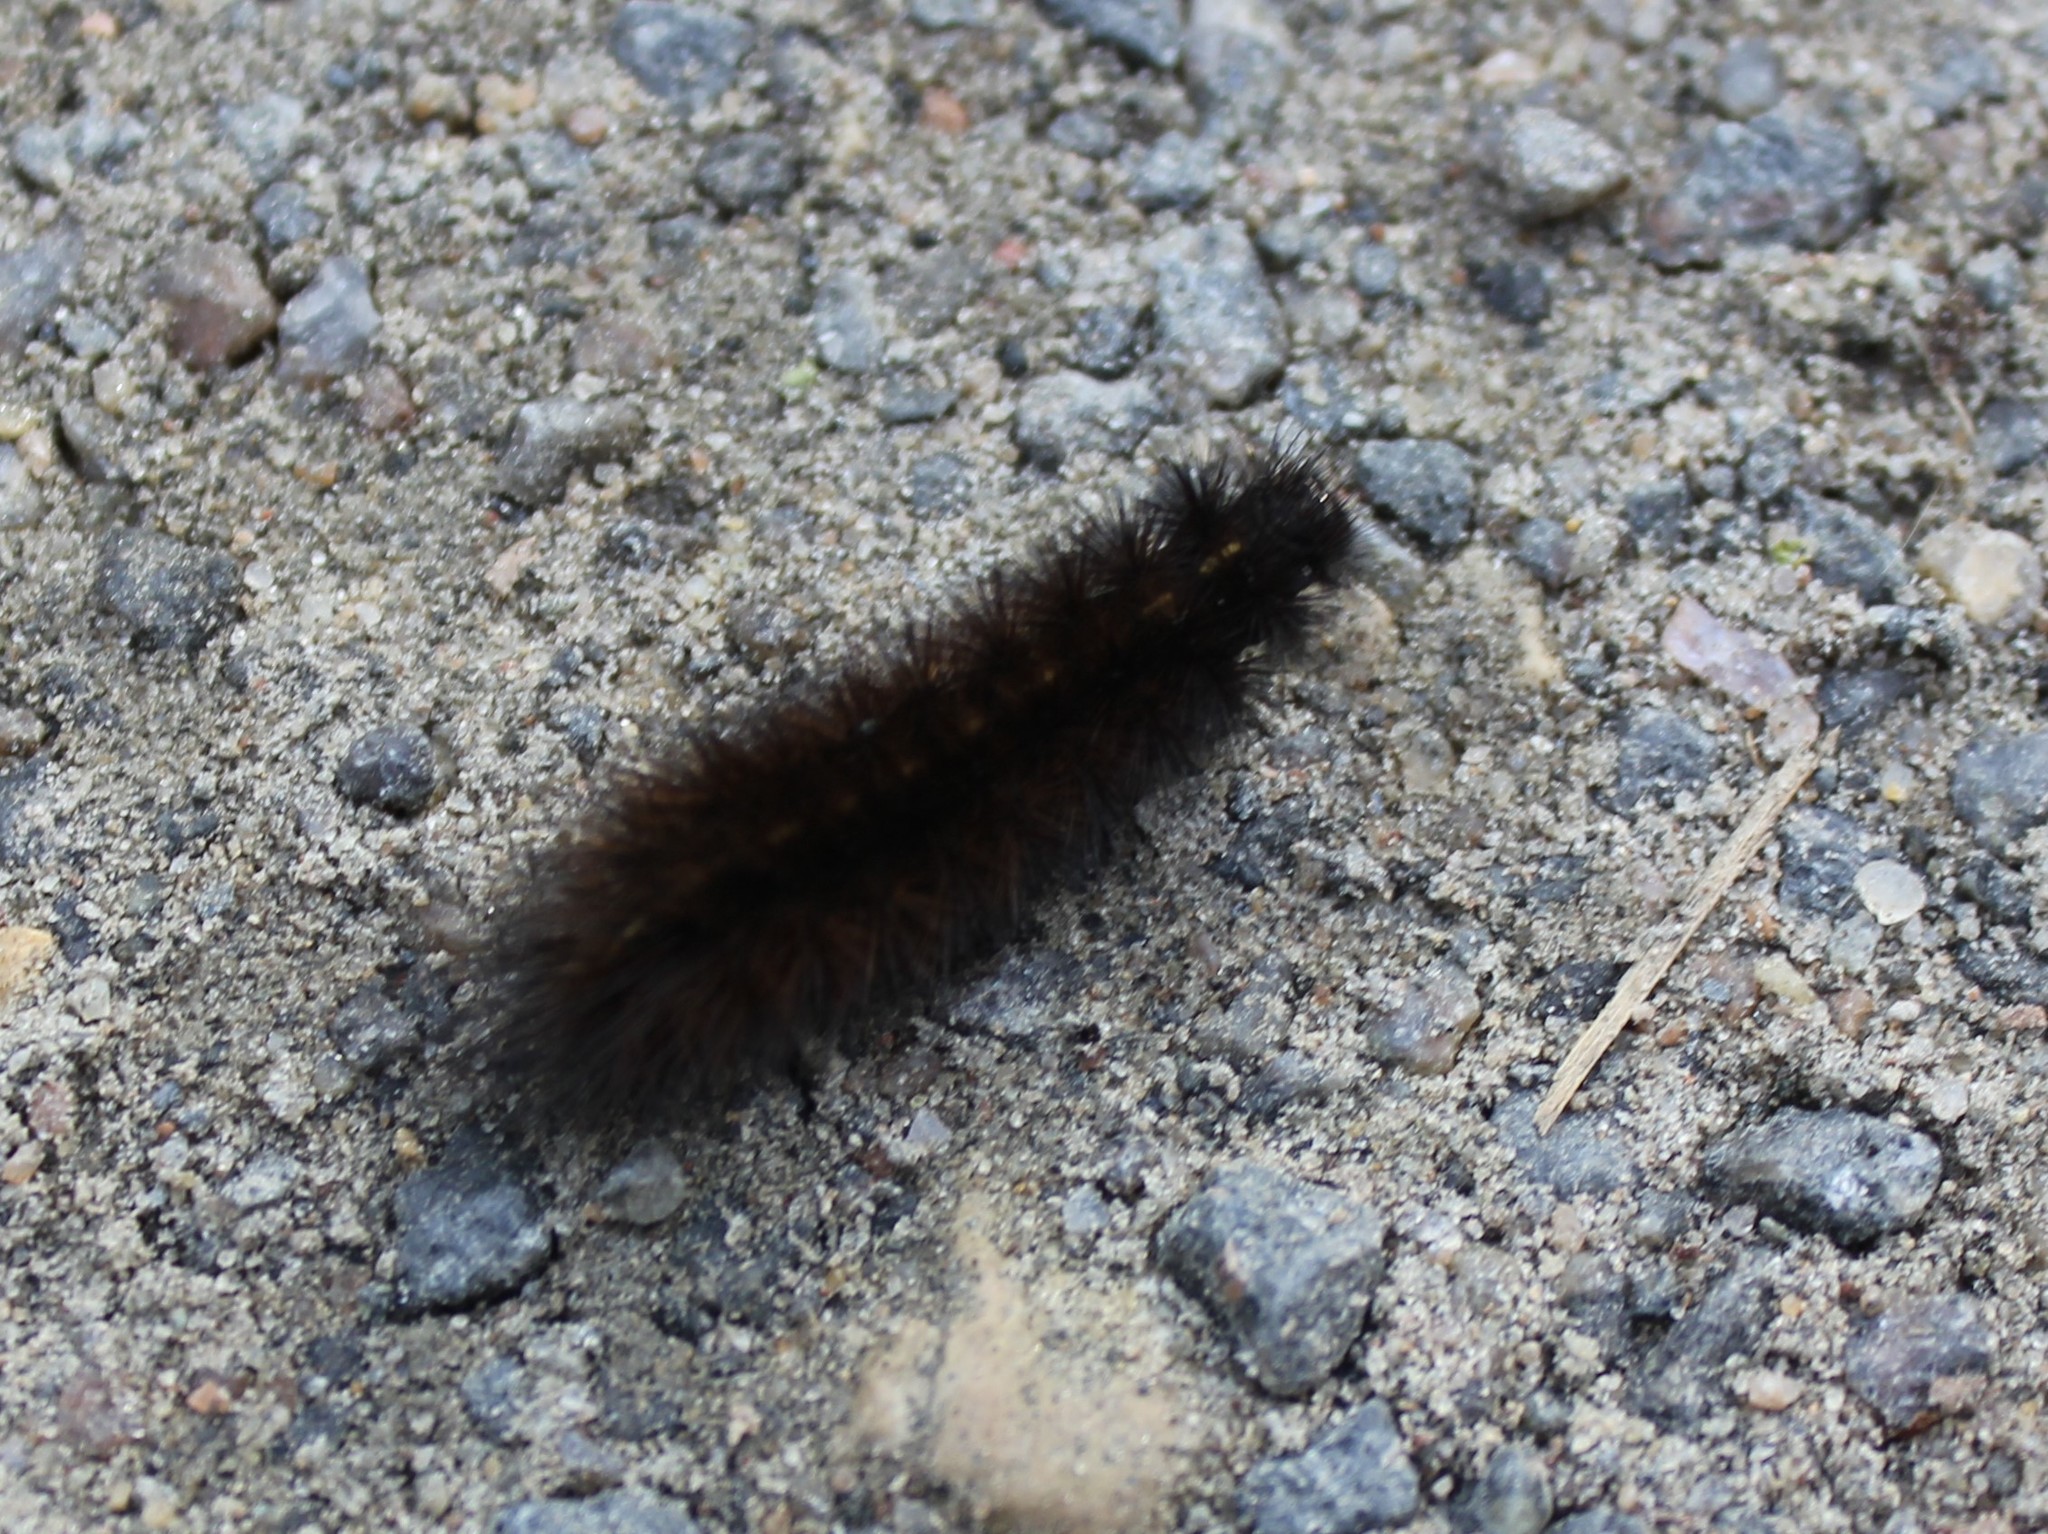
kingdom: Animalia
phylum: Arthropoda
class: Insecta
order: Lepidoptera
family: Erebidae
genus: Phragmatobia
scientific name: Phragmatobia fuliginosa
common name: Ruby tiger
